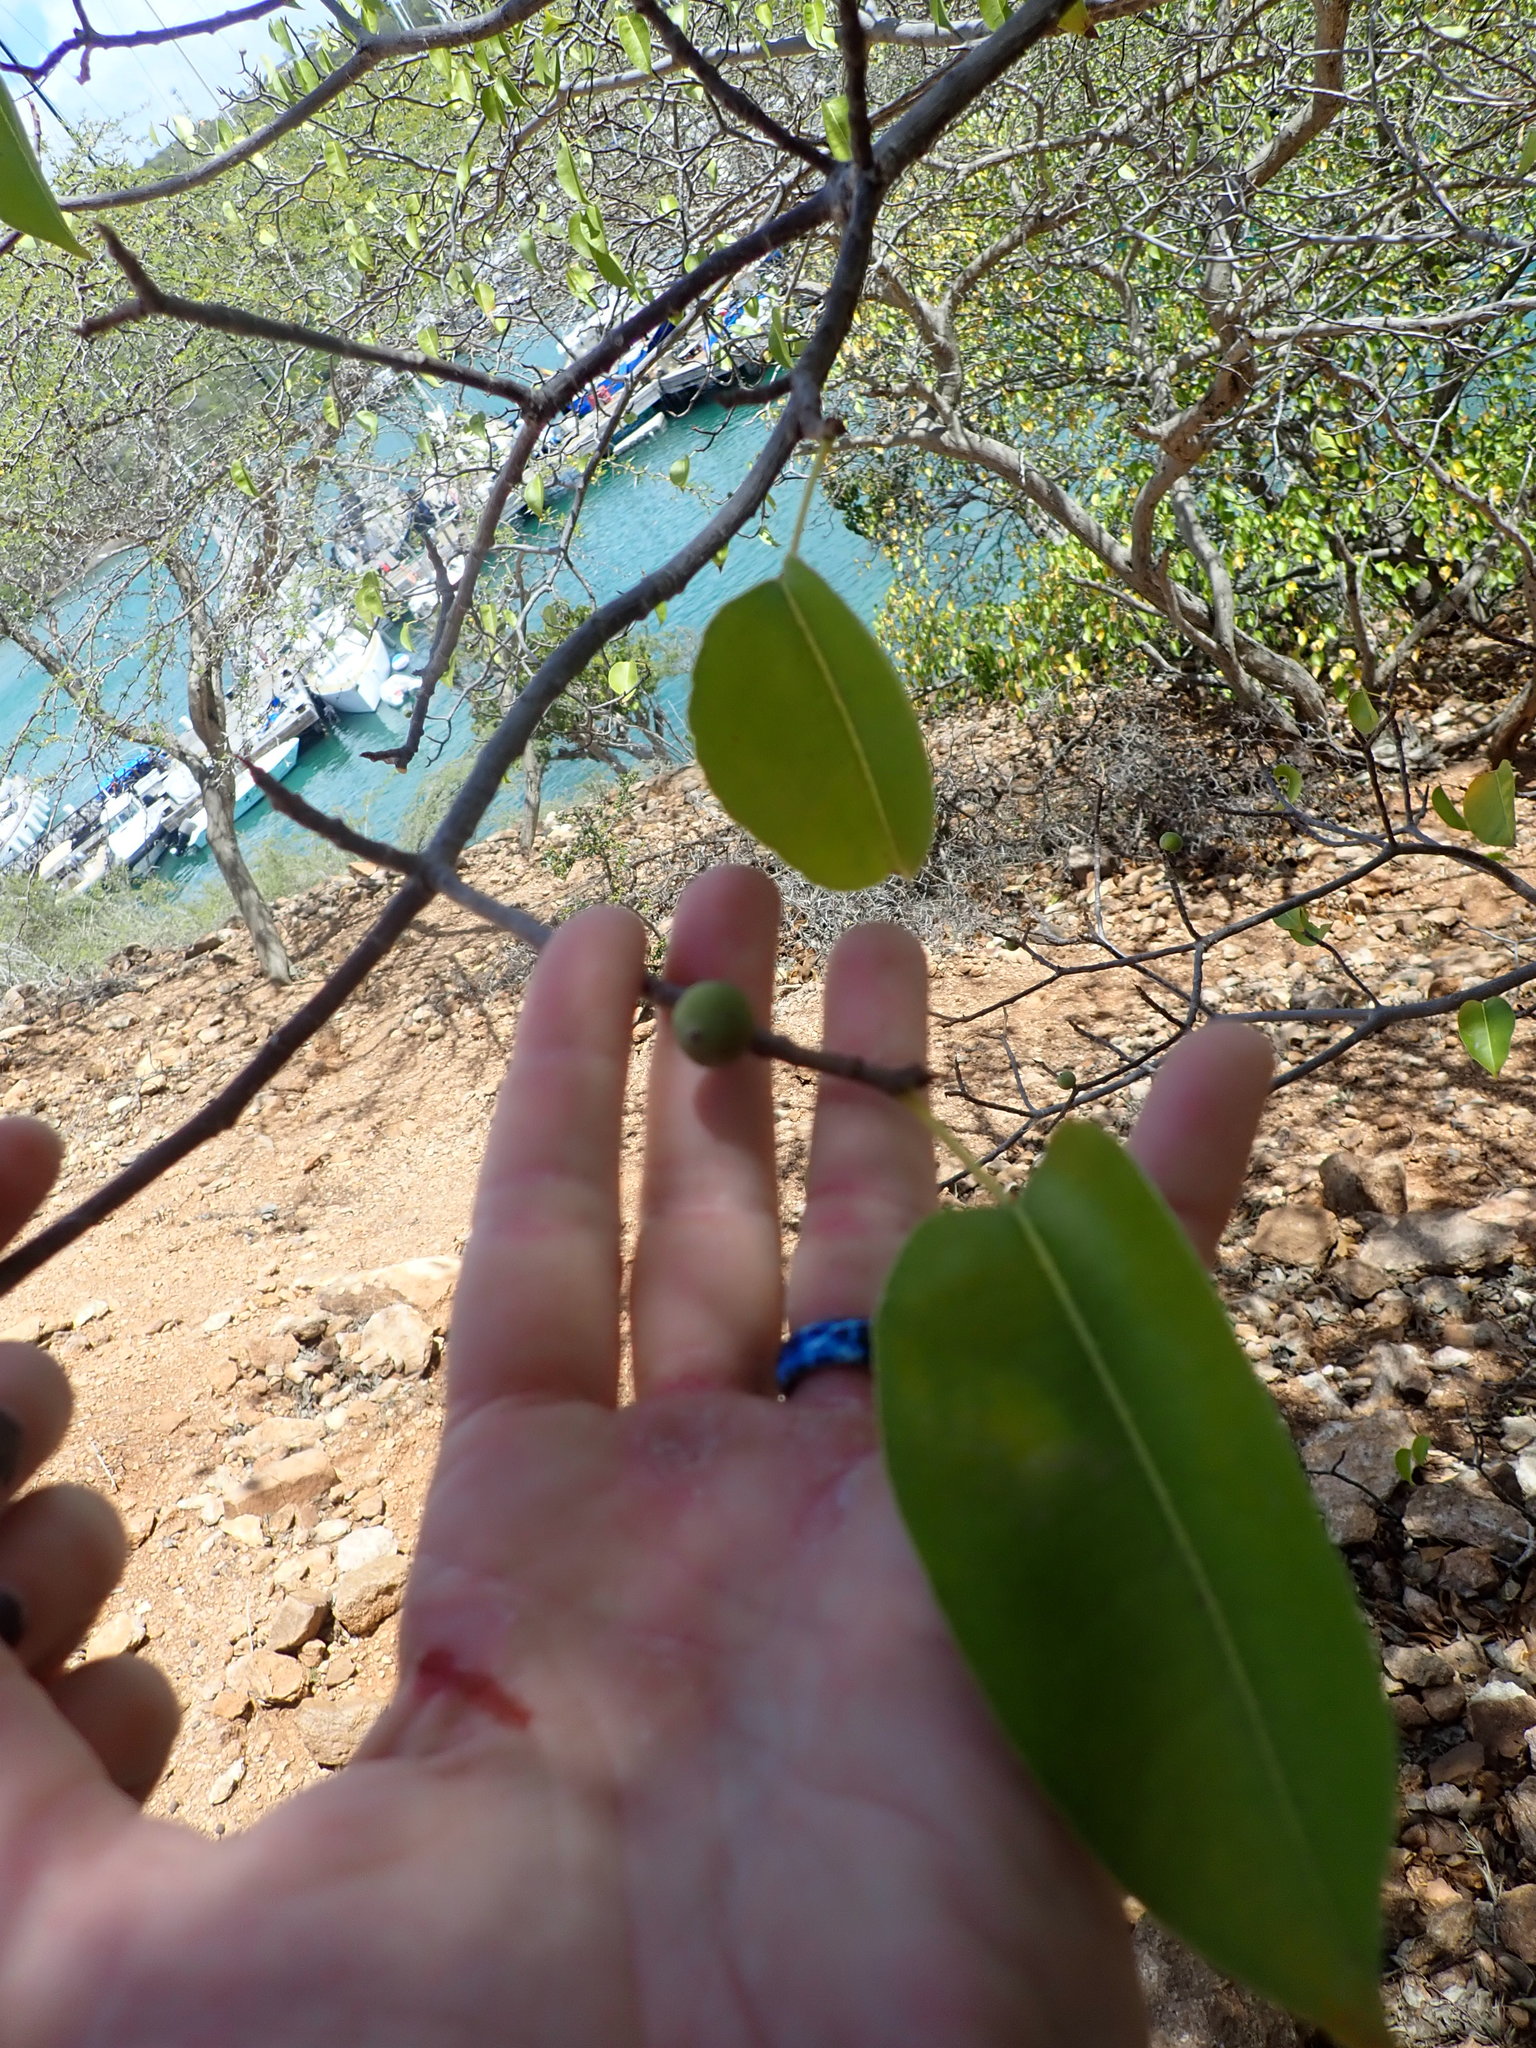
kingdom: Plantae
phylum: Tracheophyta
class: Magnoliopsida
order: Malpighiales
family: Euphorbiaceae
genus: Hippomane
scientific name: Hippomane mancinella
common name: Manchineel
